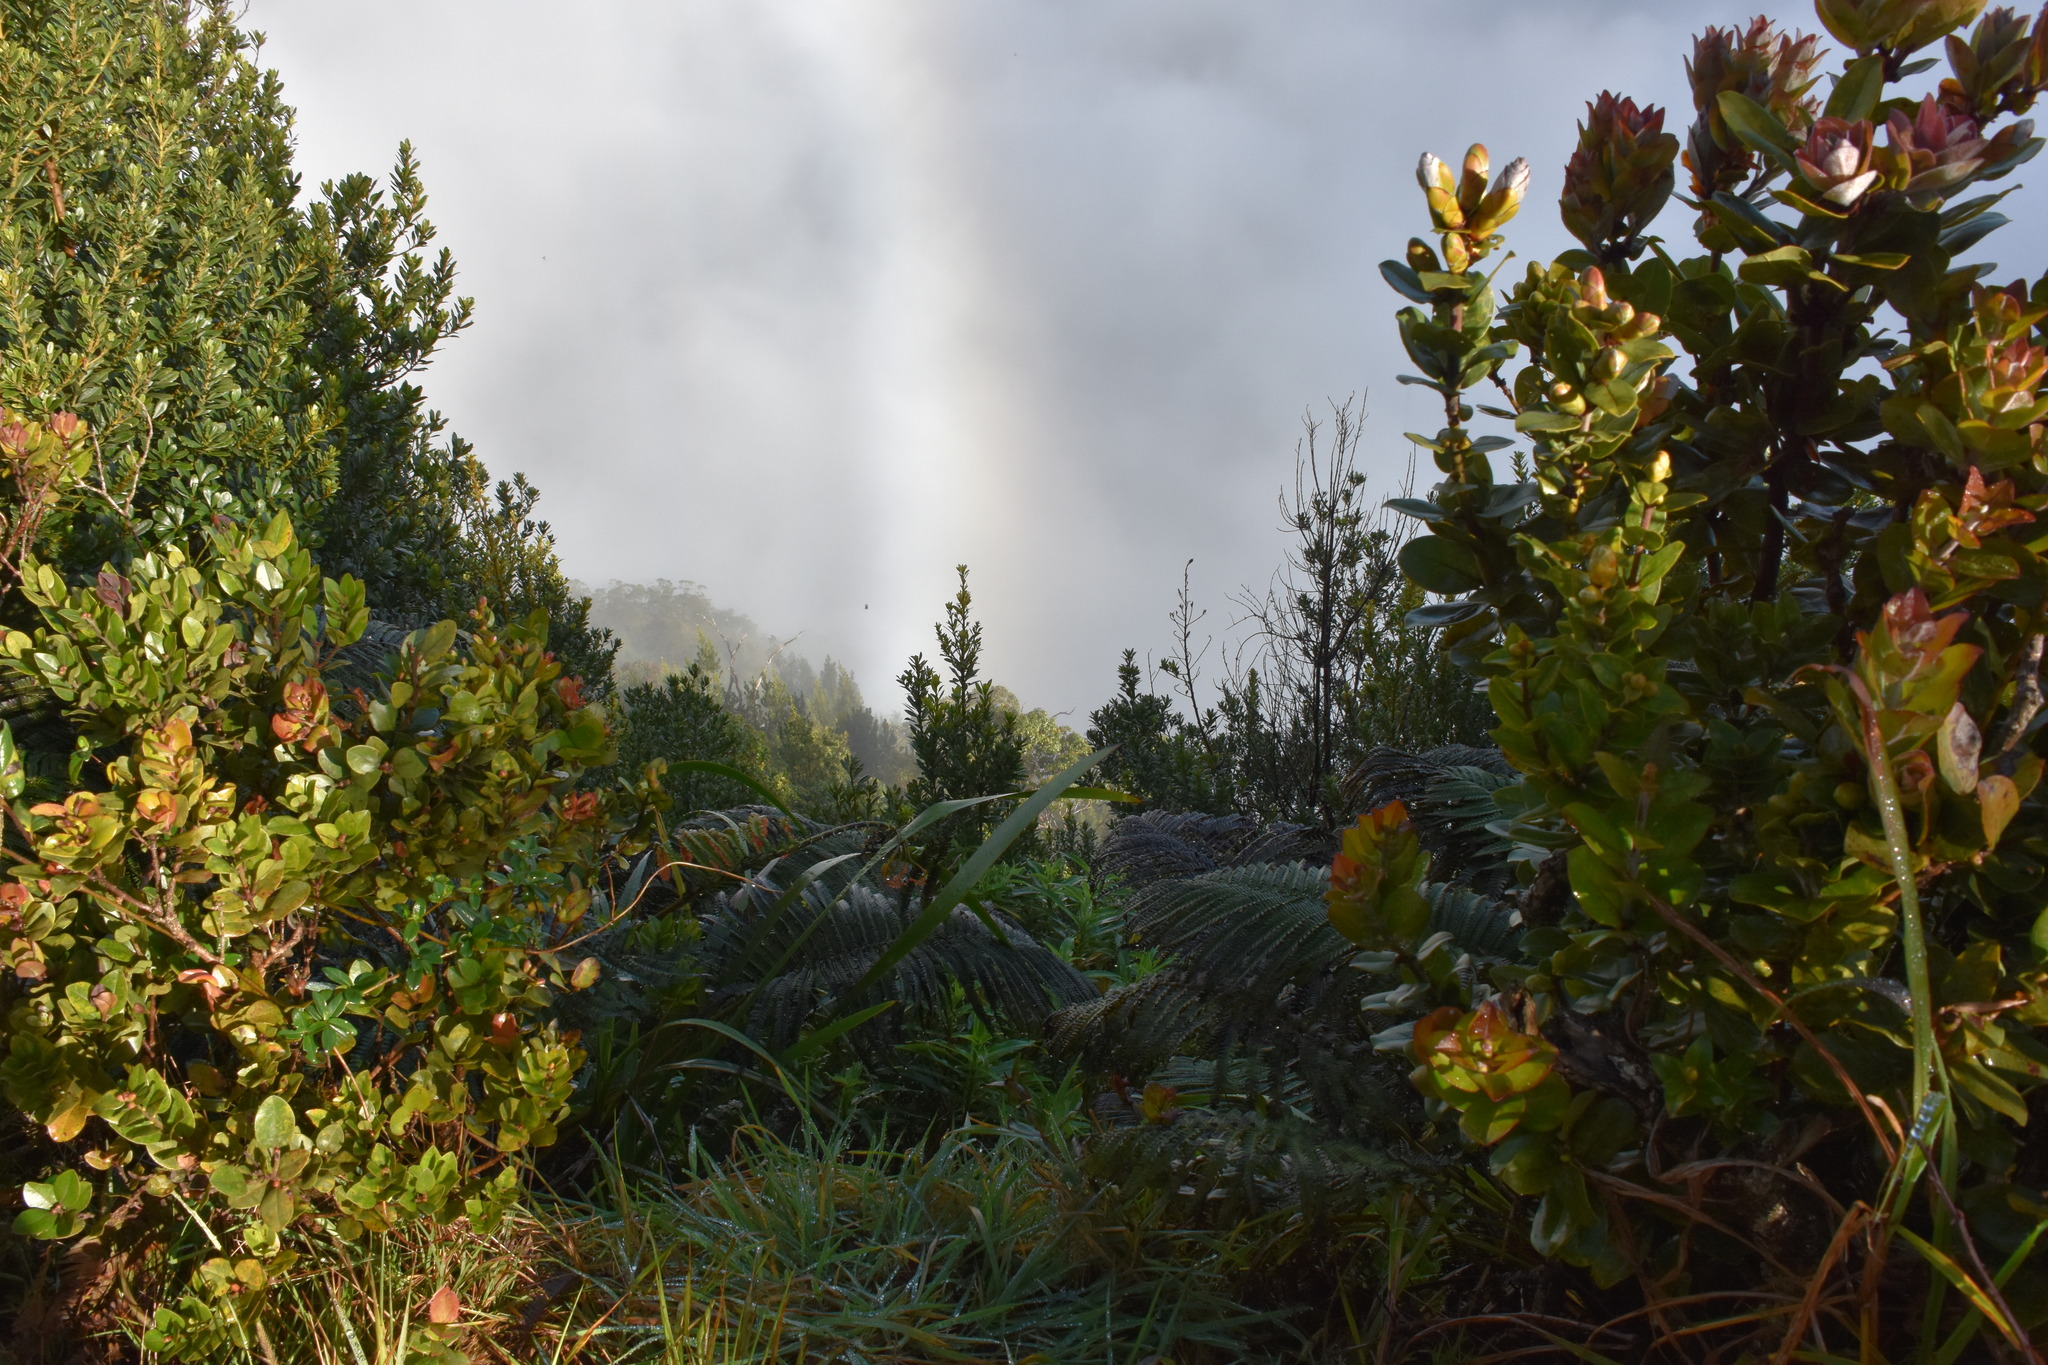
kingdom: Plantae
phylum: Tracheophyta
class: Magnoliopsida
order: Myrtales
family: Myrtaceae
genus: Metrosideros
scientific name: Metrosideros polymorpha
